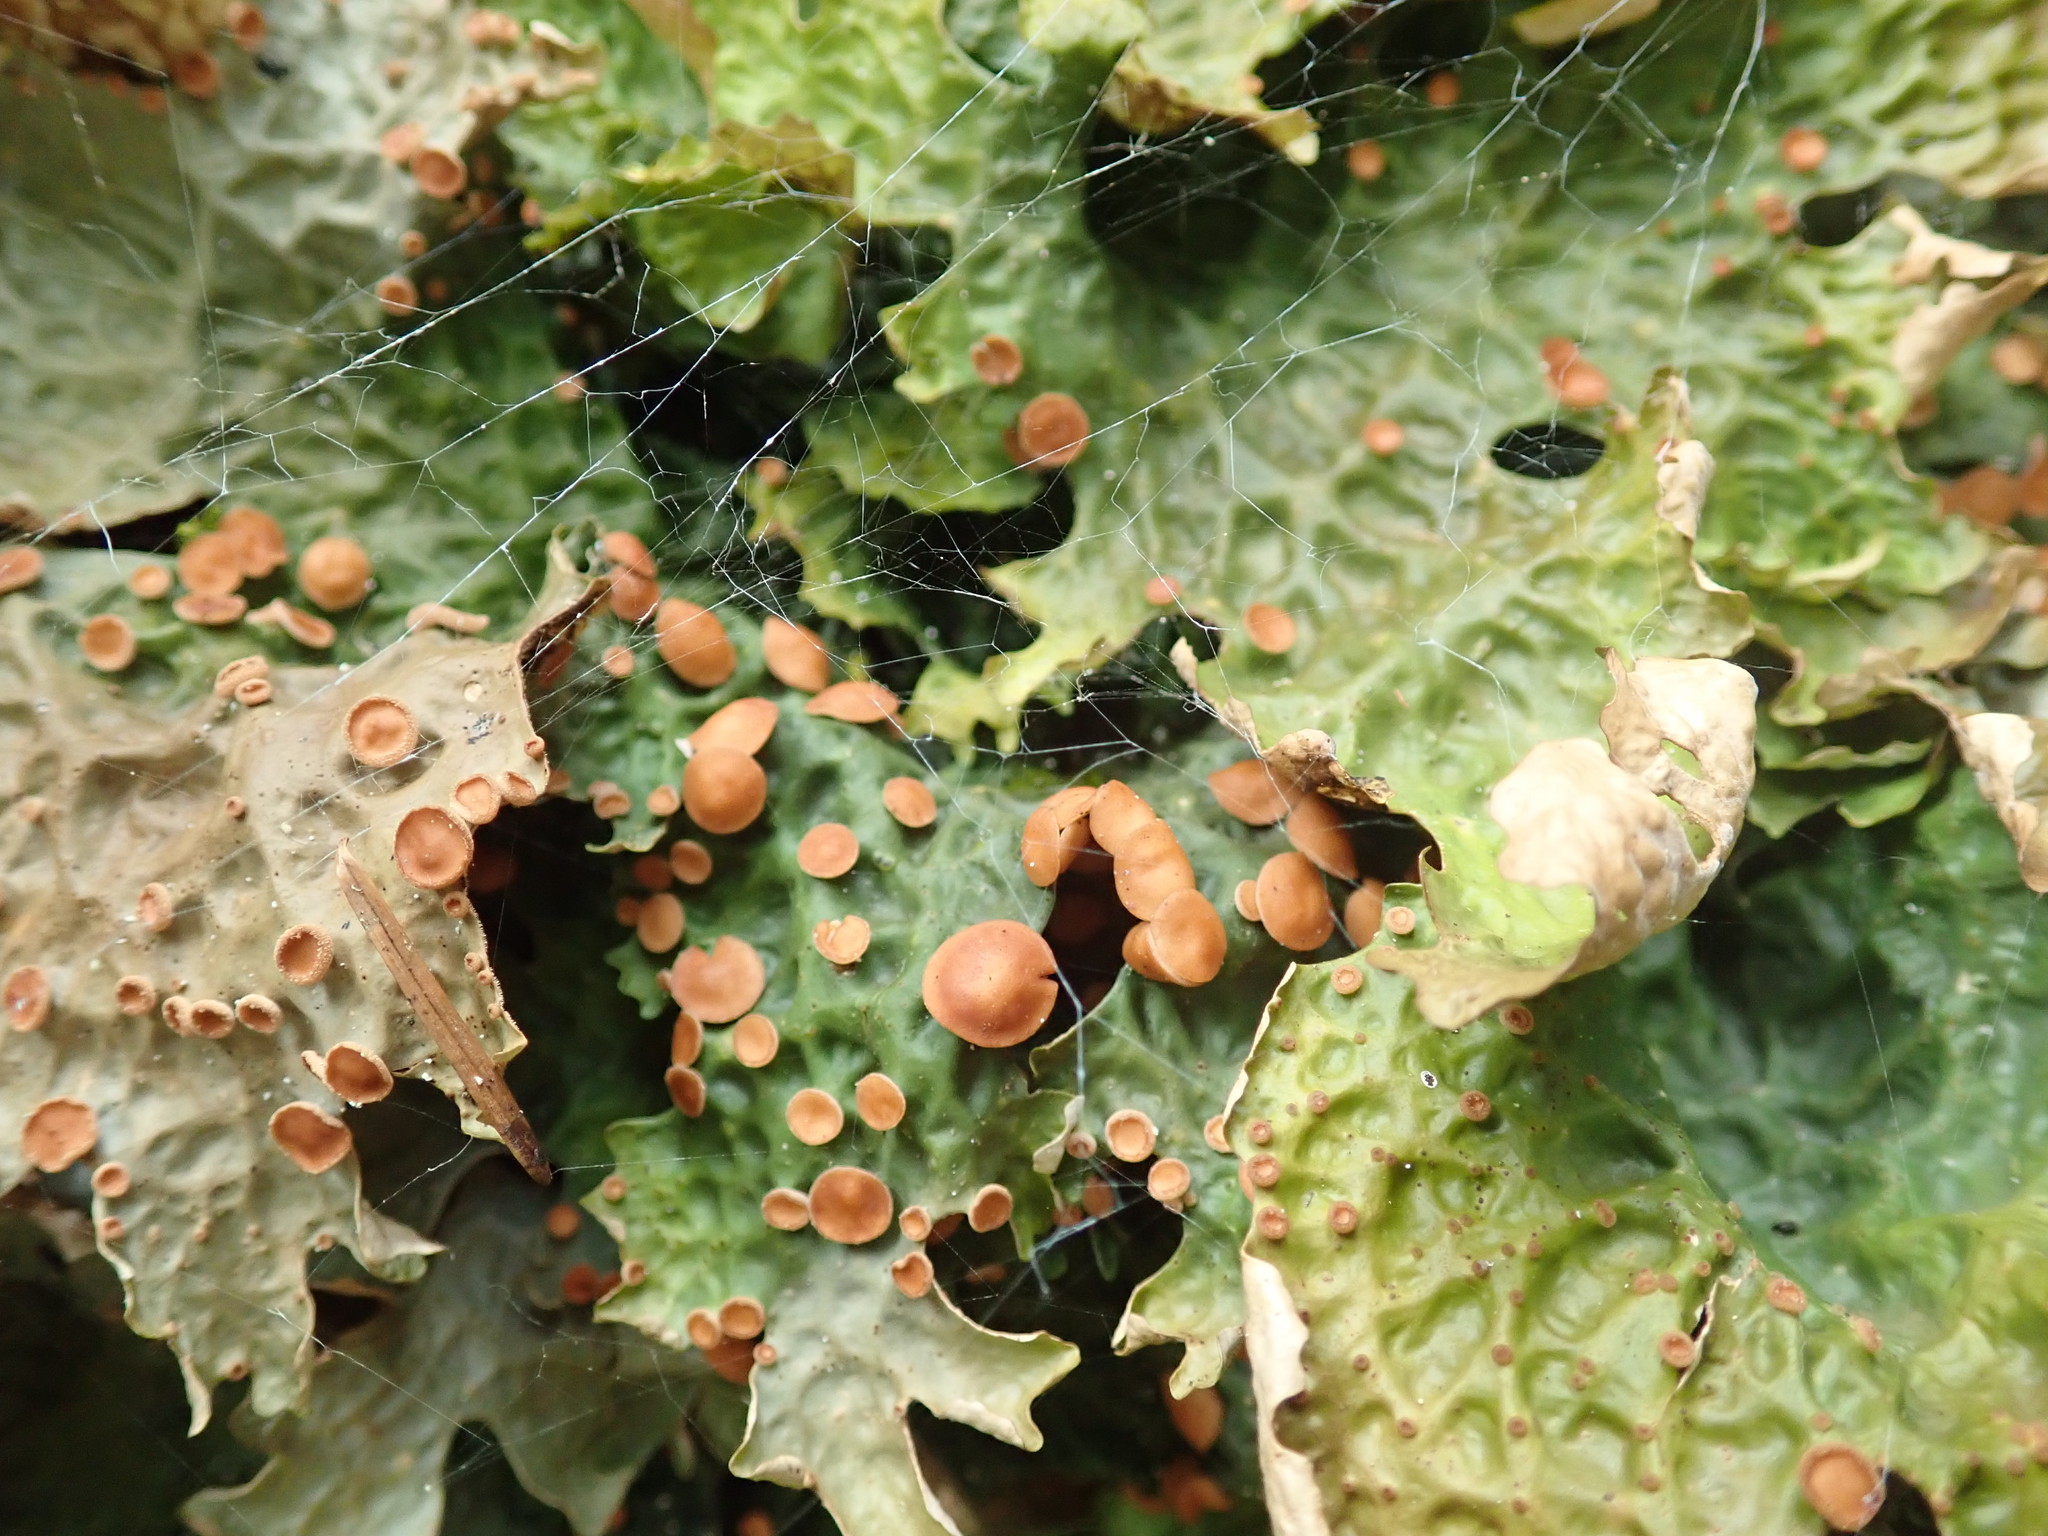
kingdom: Fungi
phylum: Ascomycota
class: Lecanoromycetes
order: Peltigerales
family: Lobariaceae
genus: Lobaria
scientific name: Lobaria linita
